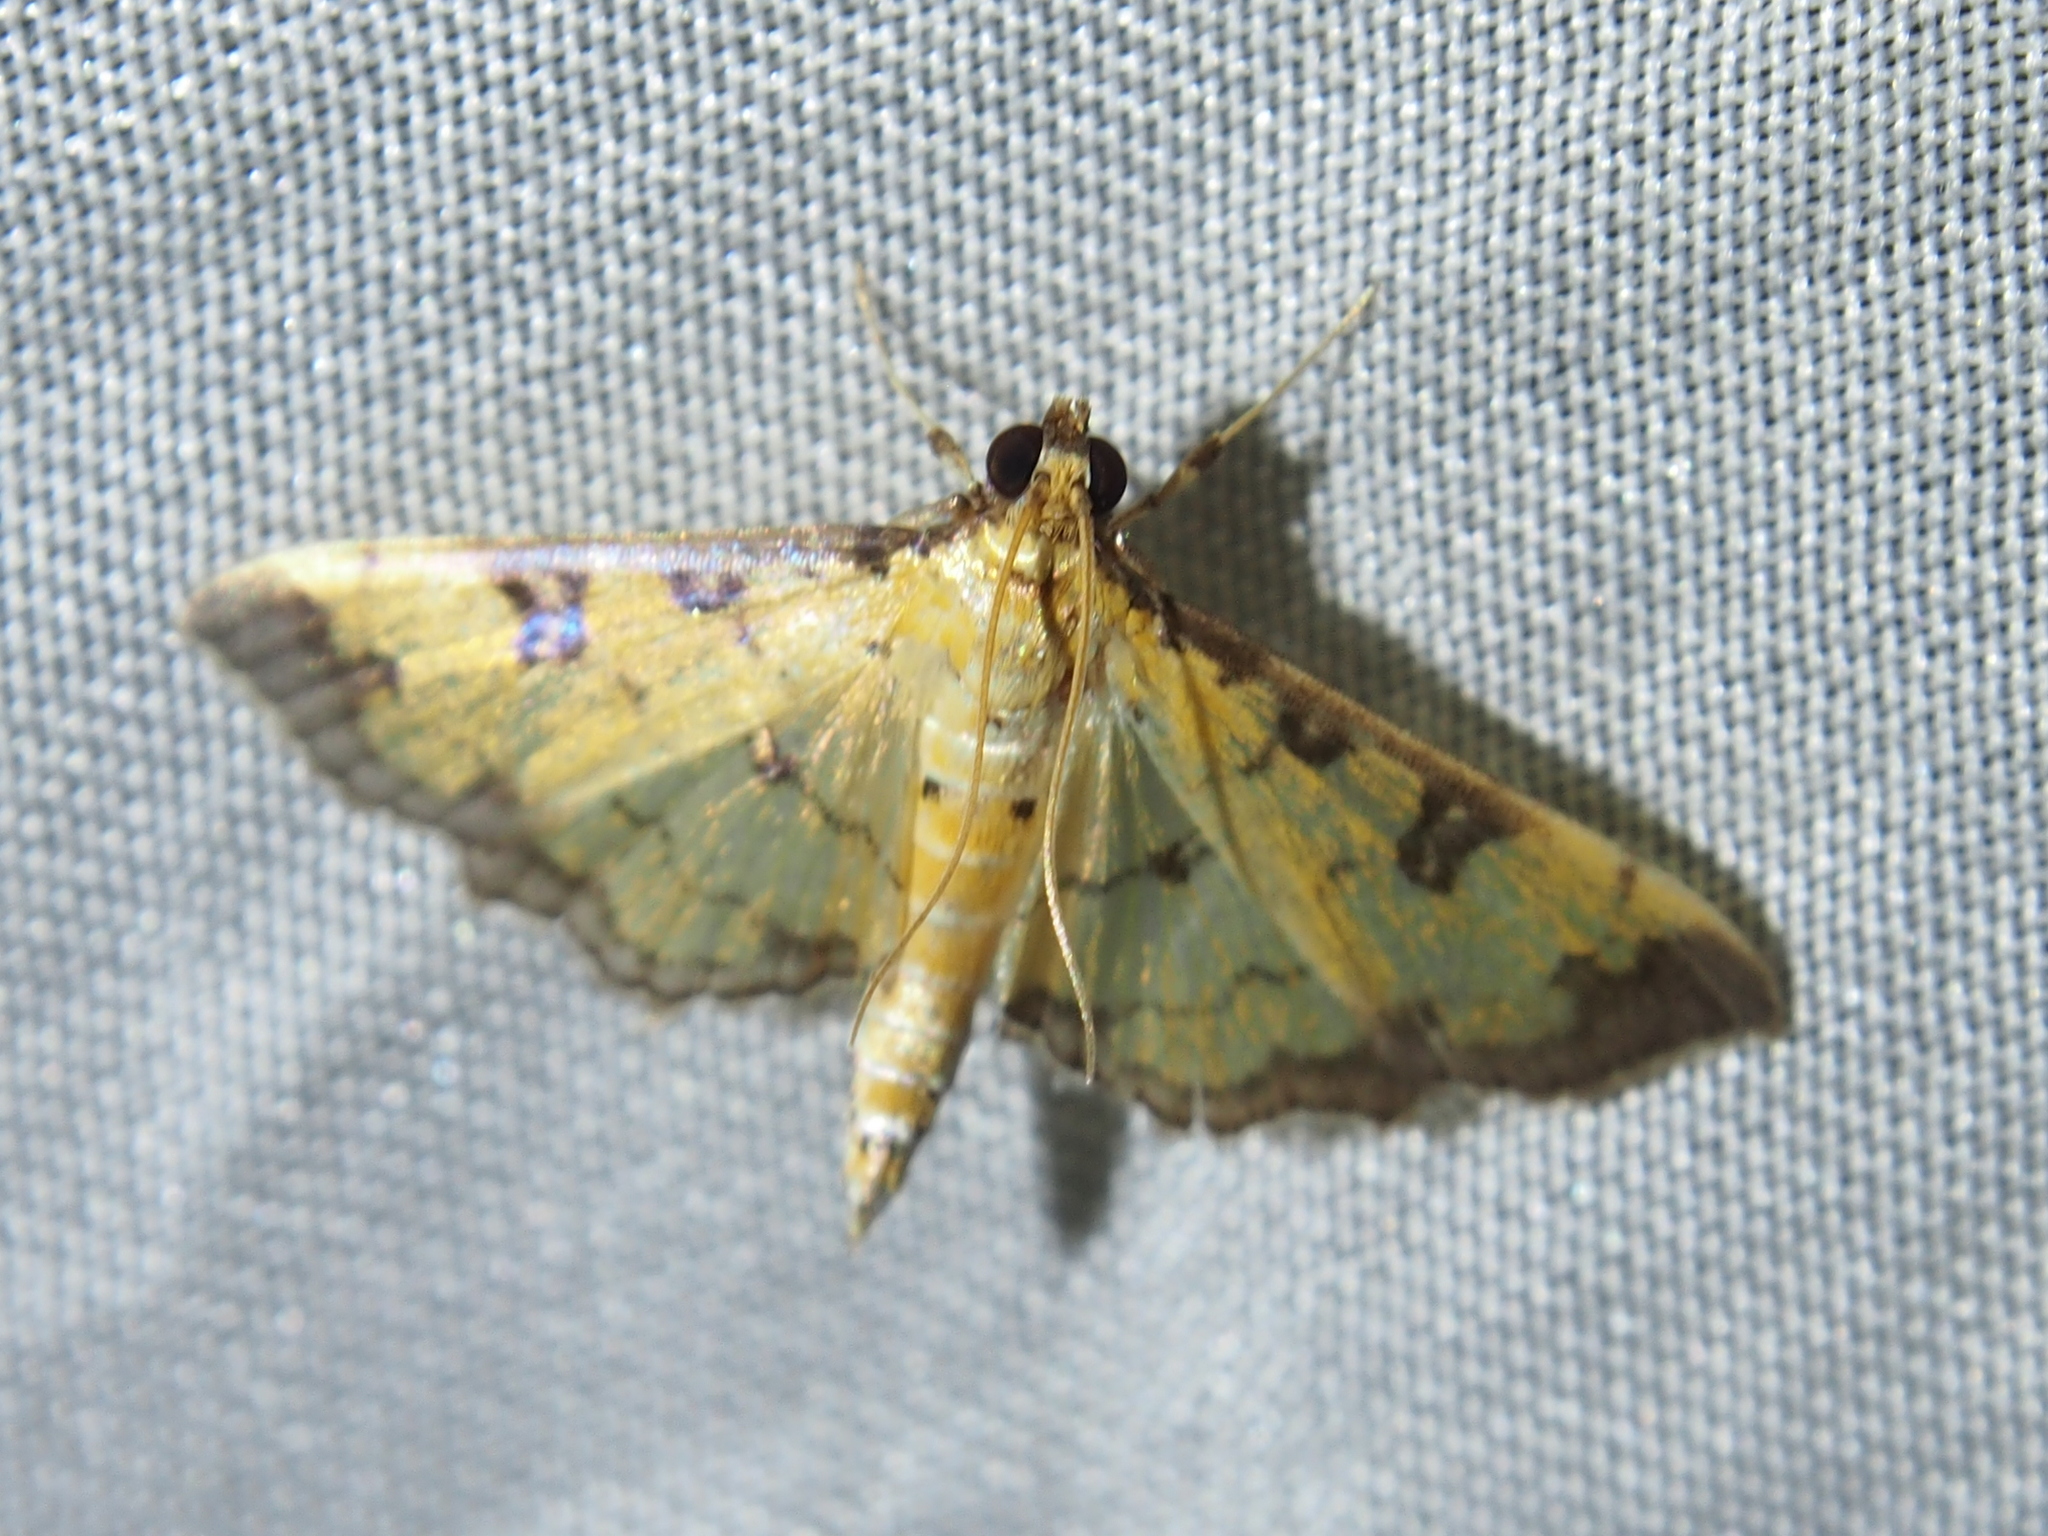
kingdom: Animalia
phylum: Arthropoda
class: Insecta
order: Lepidoptera
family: Crambidae
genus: Ategumia
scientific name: Ategumia ebulealis
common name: Moth
